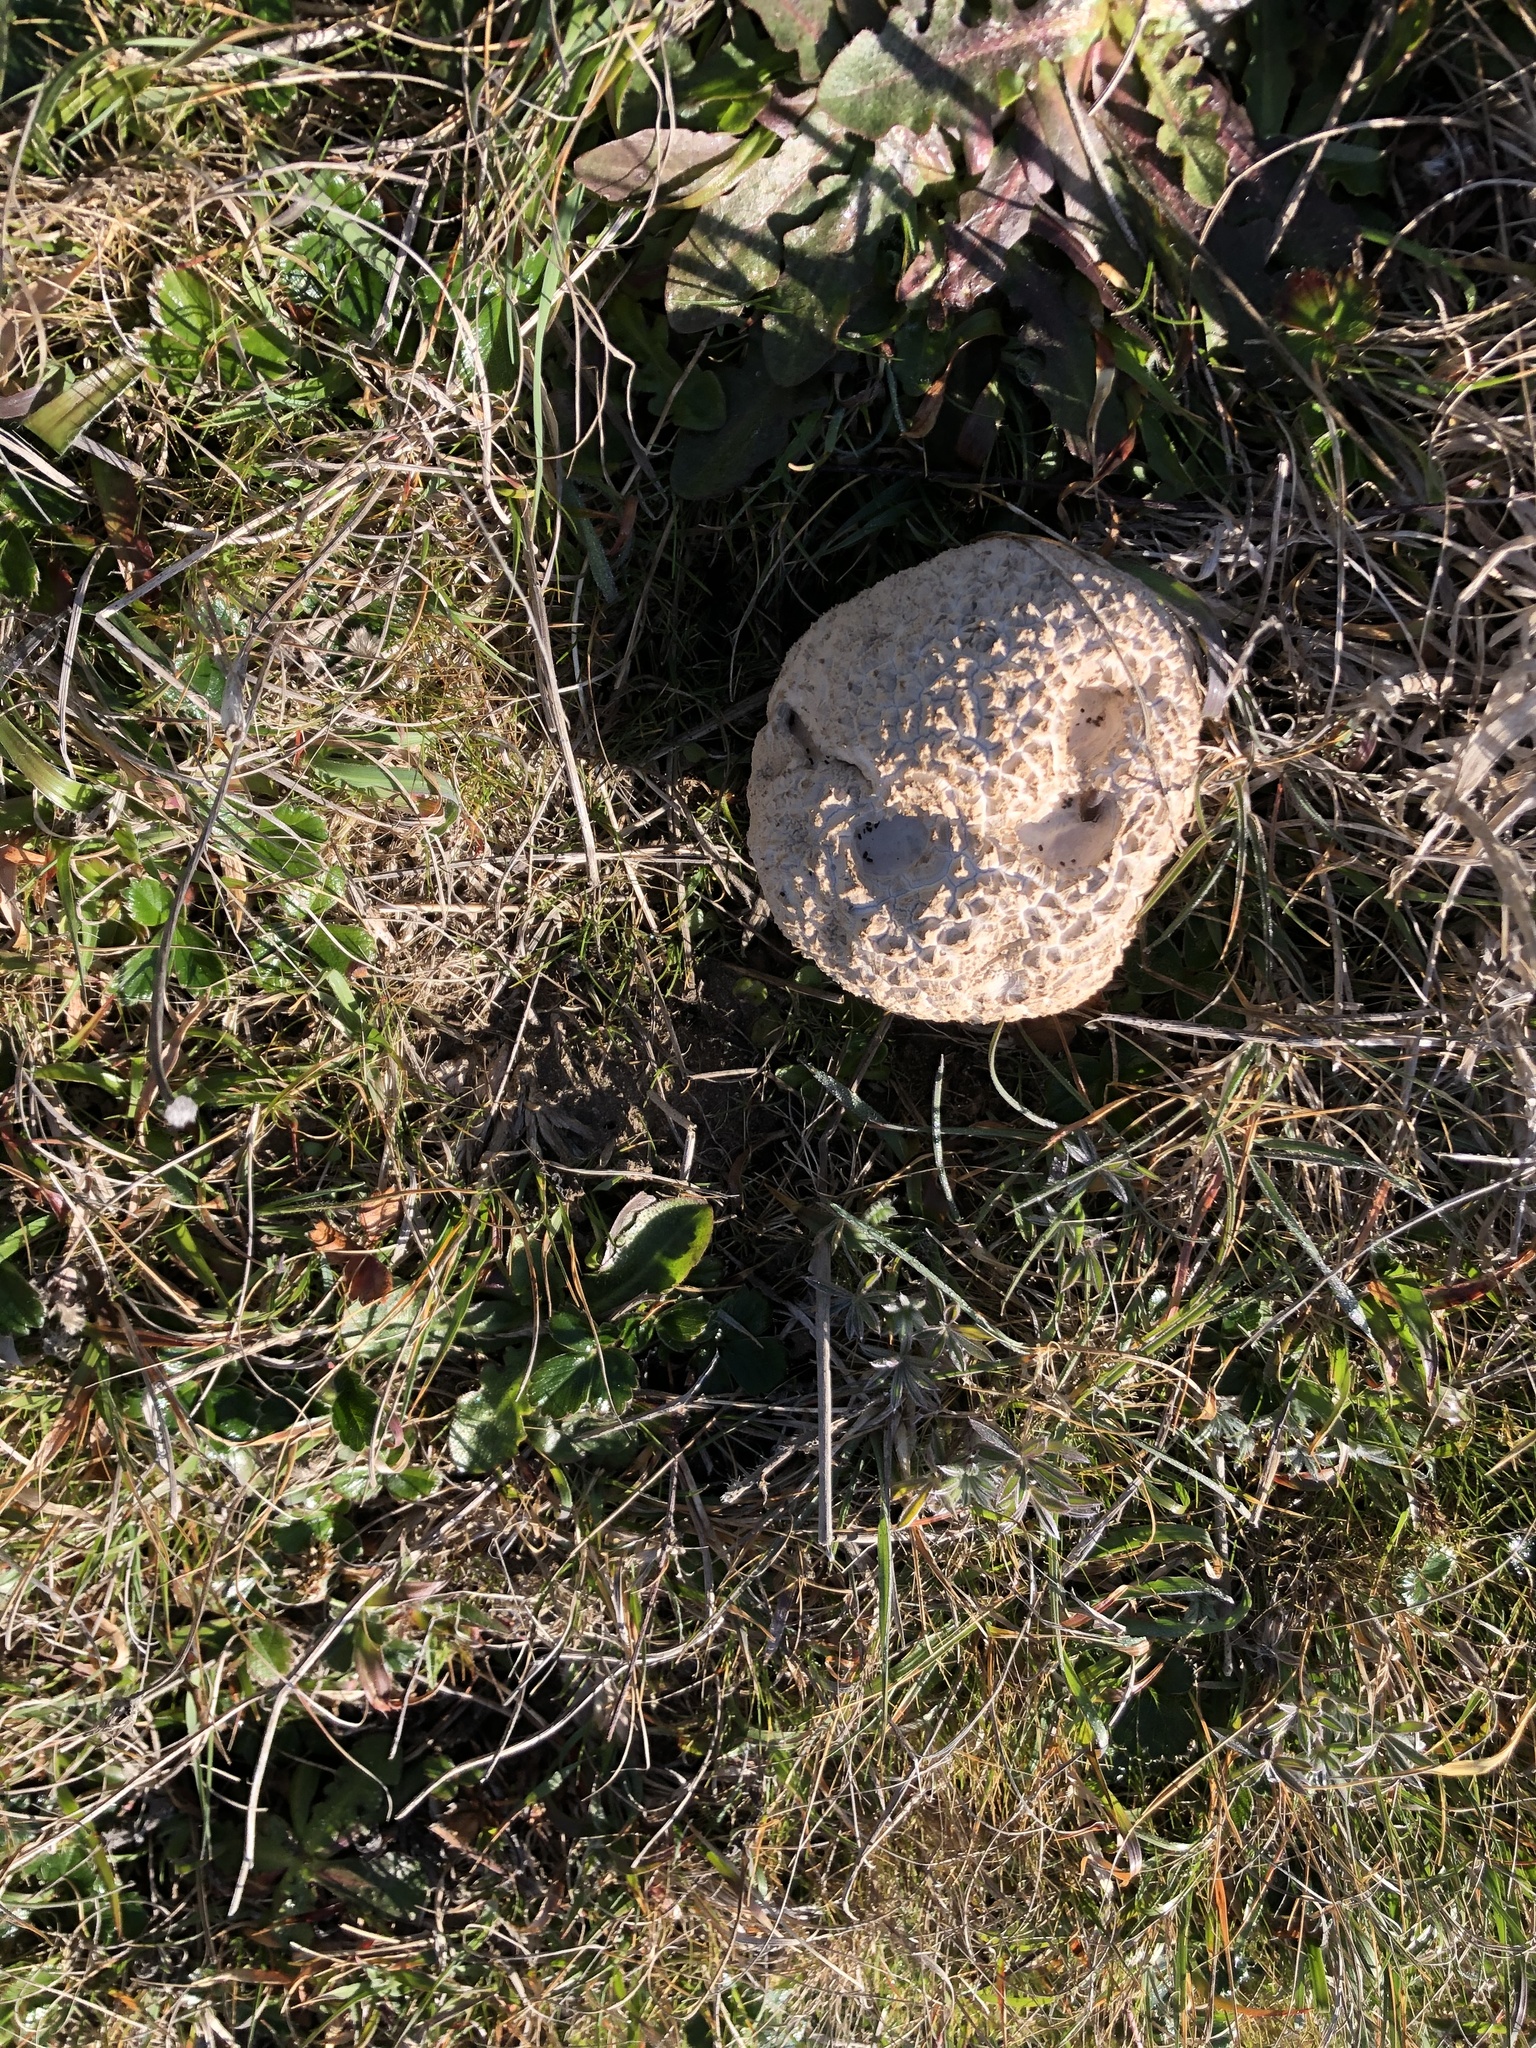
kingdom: Fungi
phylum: Basidiomycota
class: Agaricomycetes
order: Agaricales
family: Lycoperdaceae
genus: Calvatia
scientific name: Calvatia booniana
